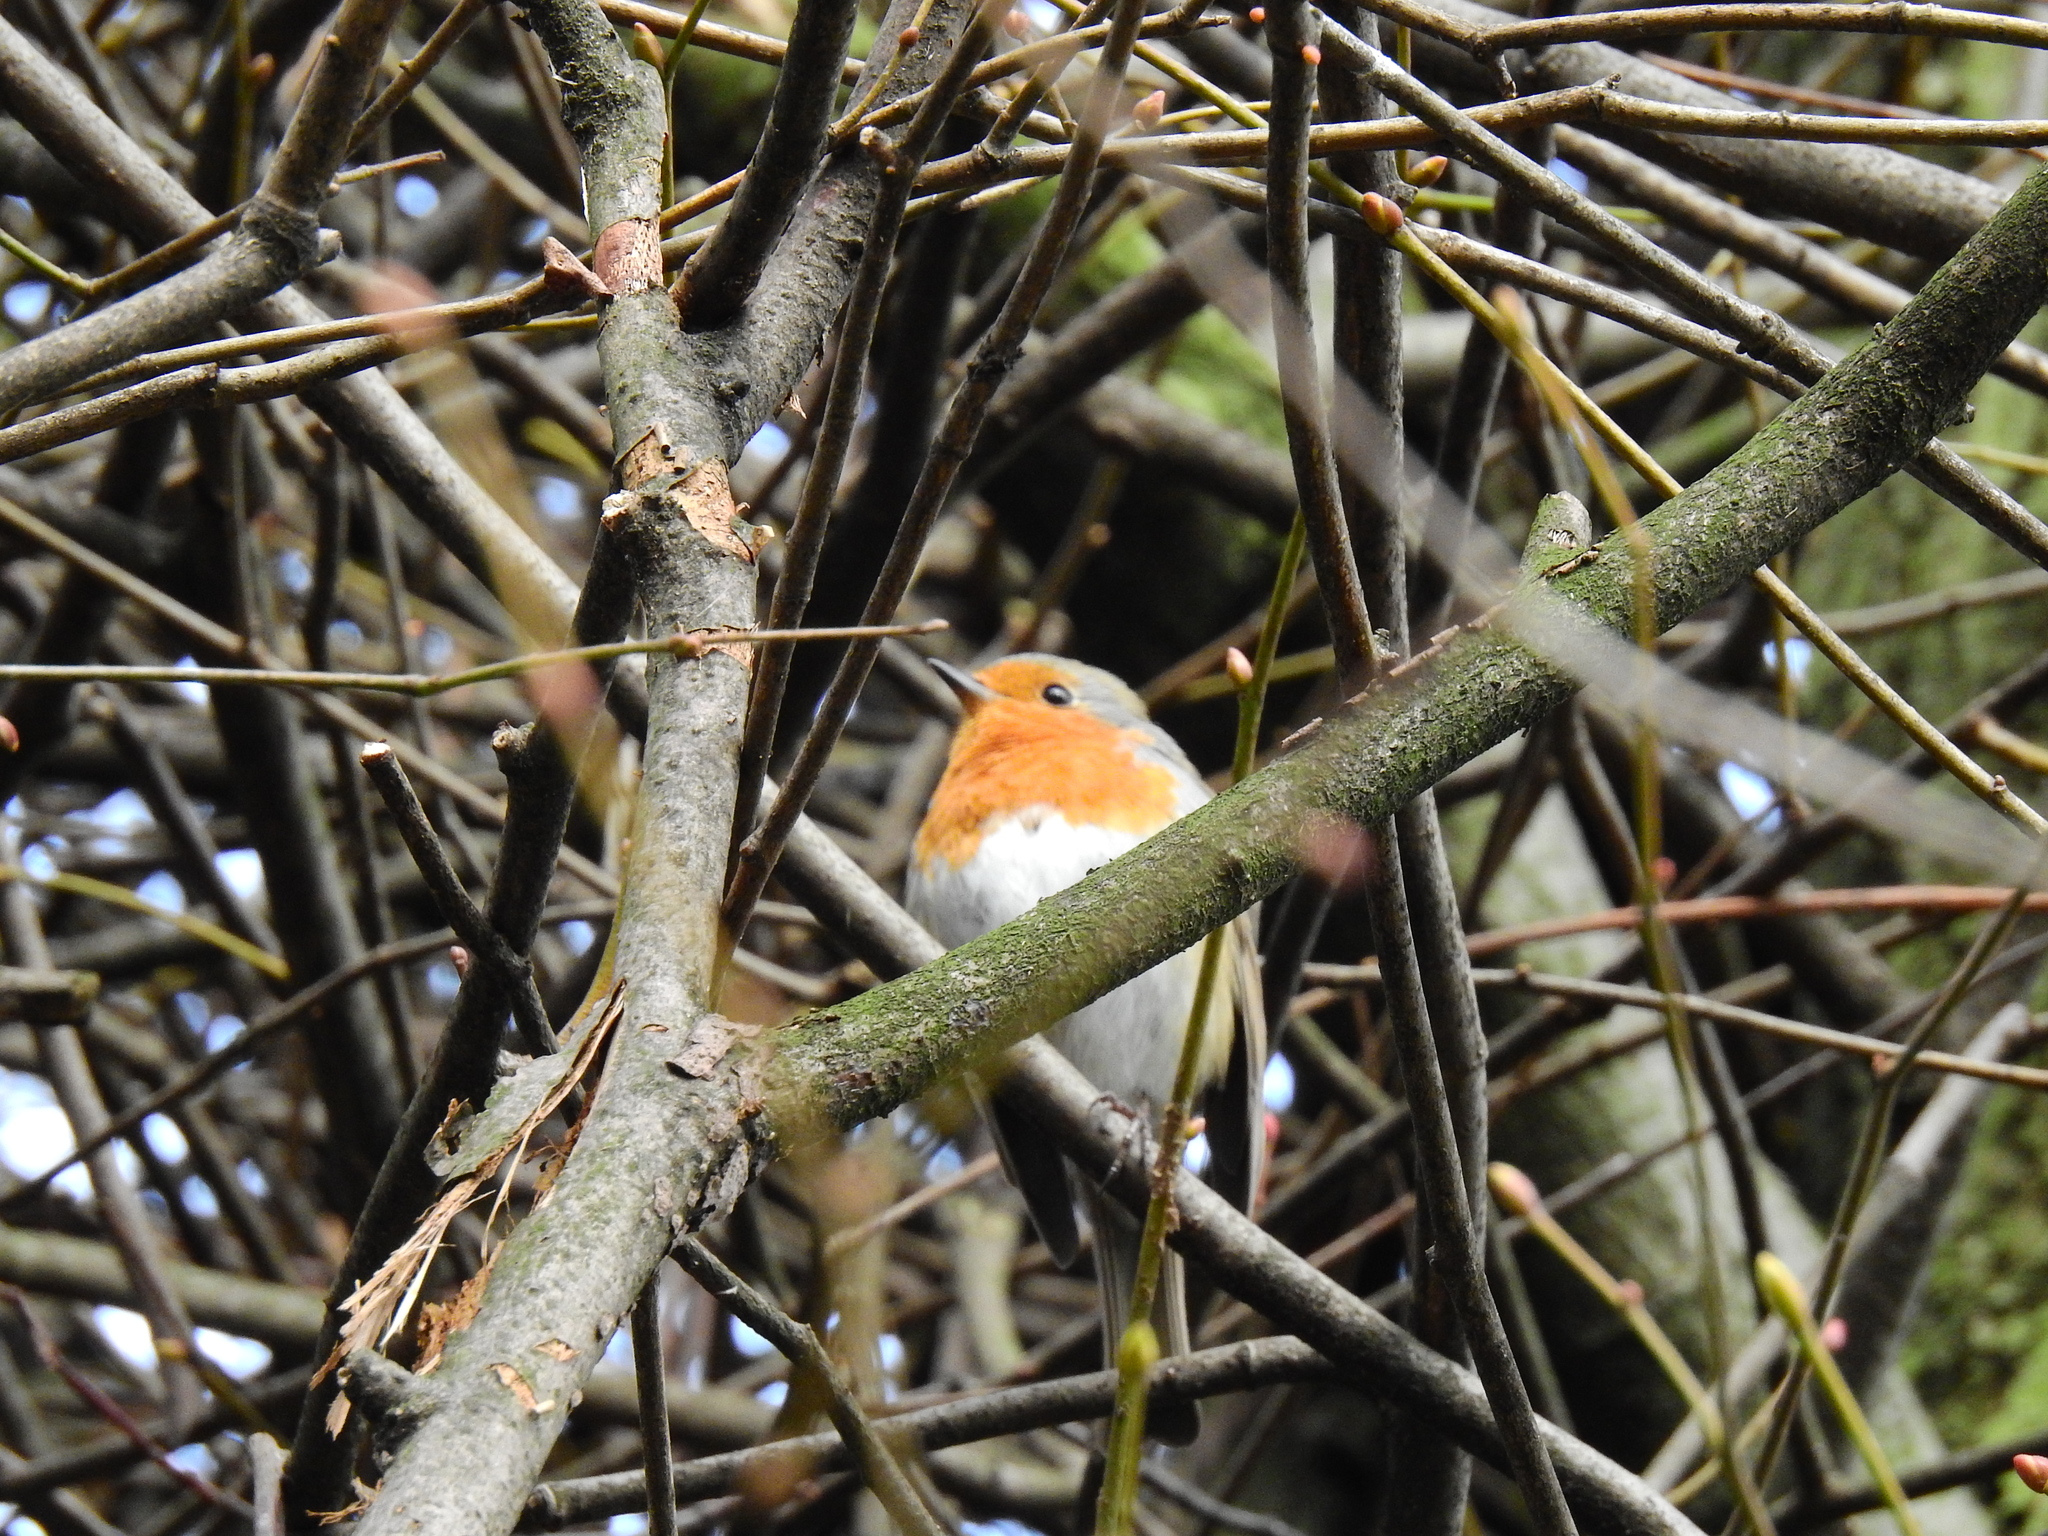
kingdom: Animalia
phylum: Chordata
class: Aves
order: Passeriformes
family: Muscicapidae
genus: Erithacus
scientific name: Erithacus rubecula
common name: European robin
